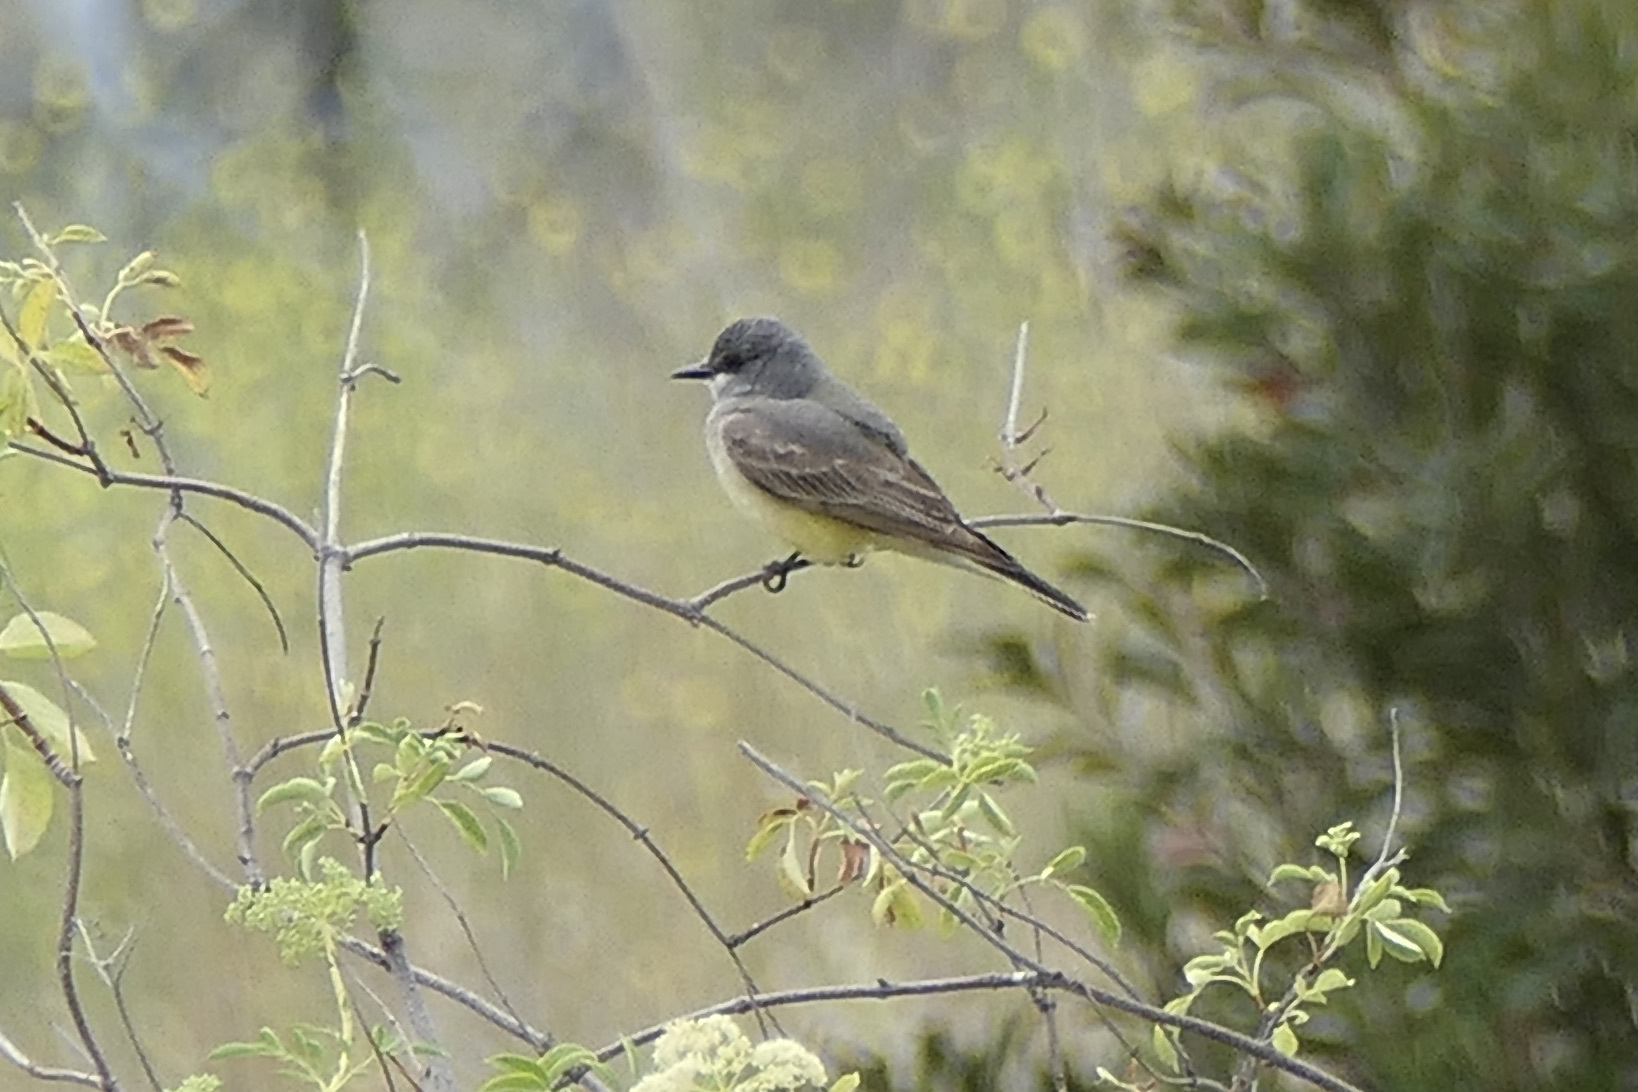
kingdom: Animalia
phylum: Chordata
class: Aves
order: Passeriformes
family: Tyrannidae
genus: Tyrannus
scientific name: Tyrannus vociferans
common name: Cassin's kingbird
